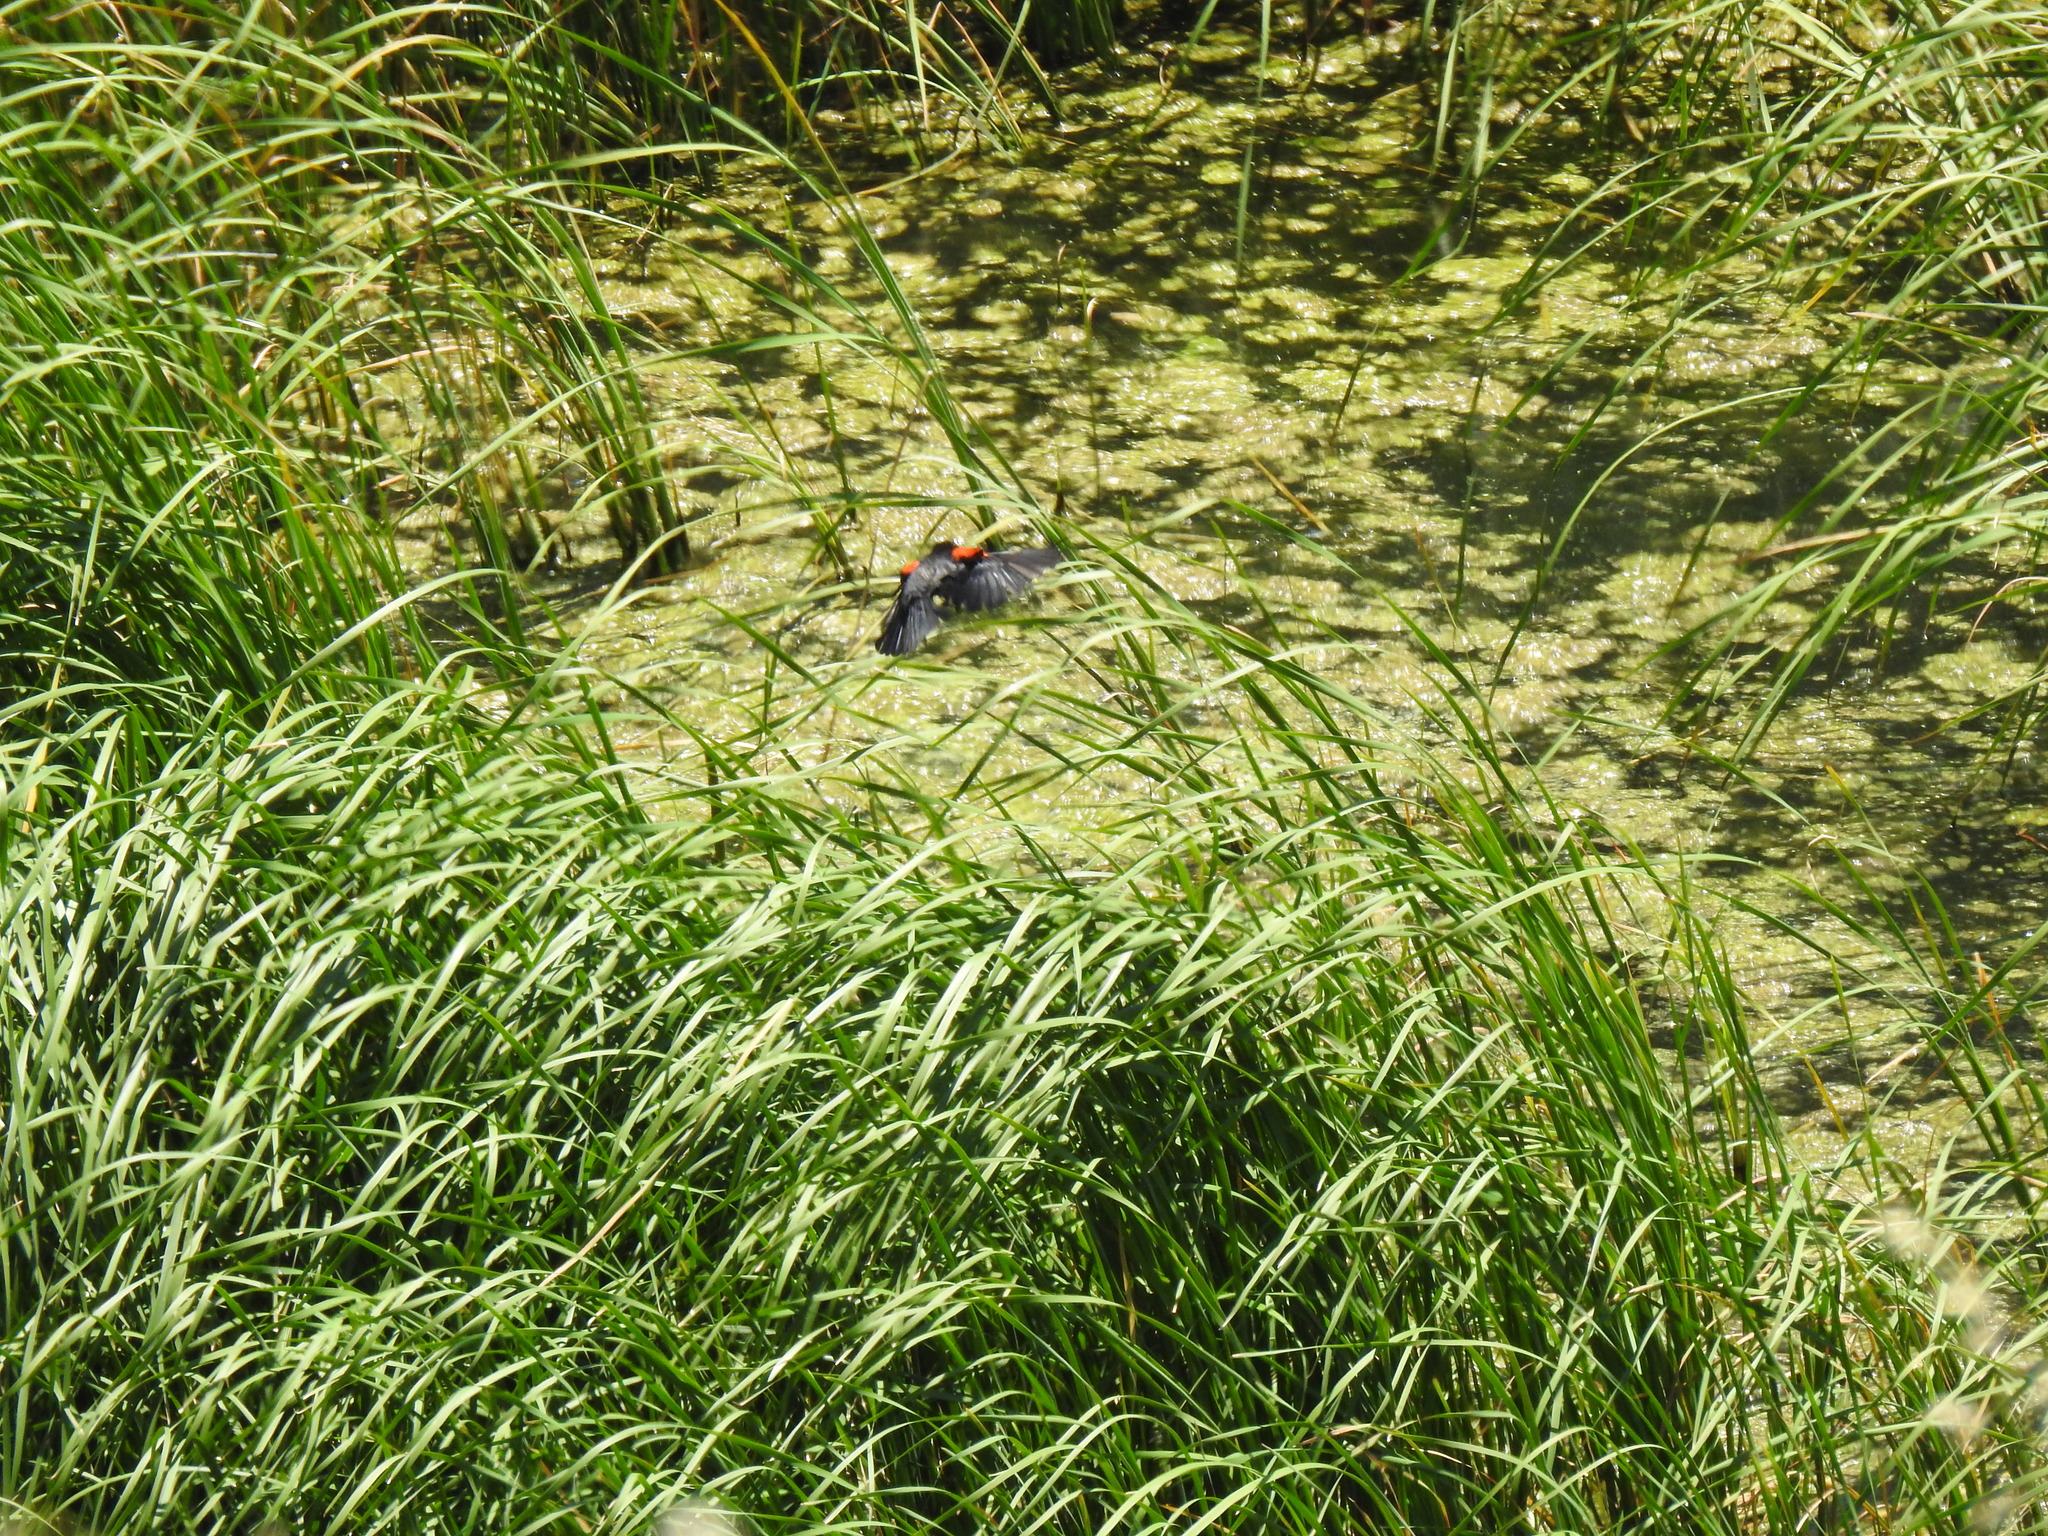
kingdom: Animalia
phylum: Chordata
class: Aves
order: Passeriformes
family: Icteridae
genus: Agelaius
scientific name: Agelaius phoeniceus
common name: Red-winged blackbird
